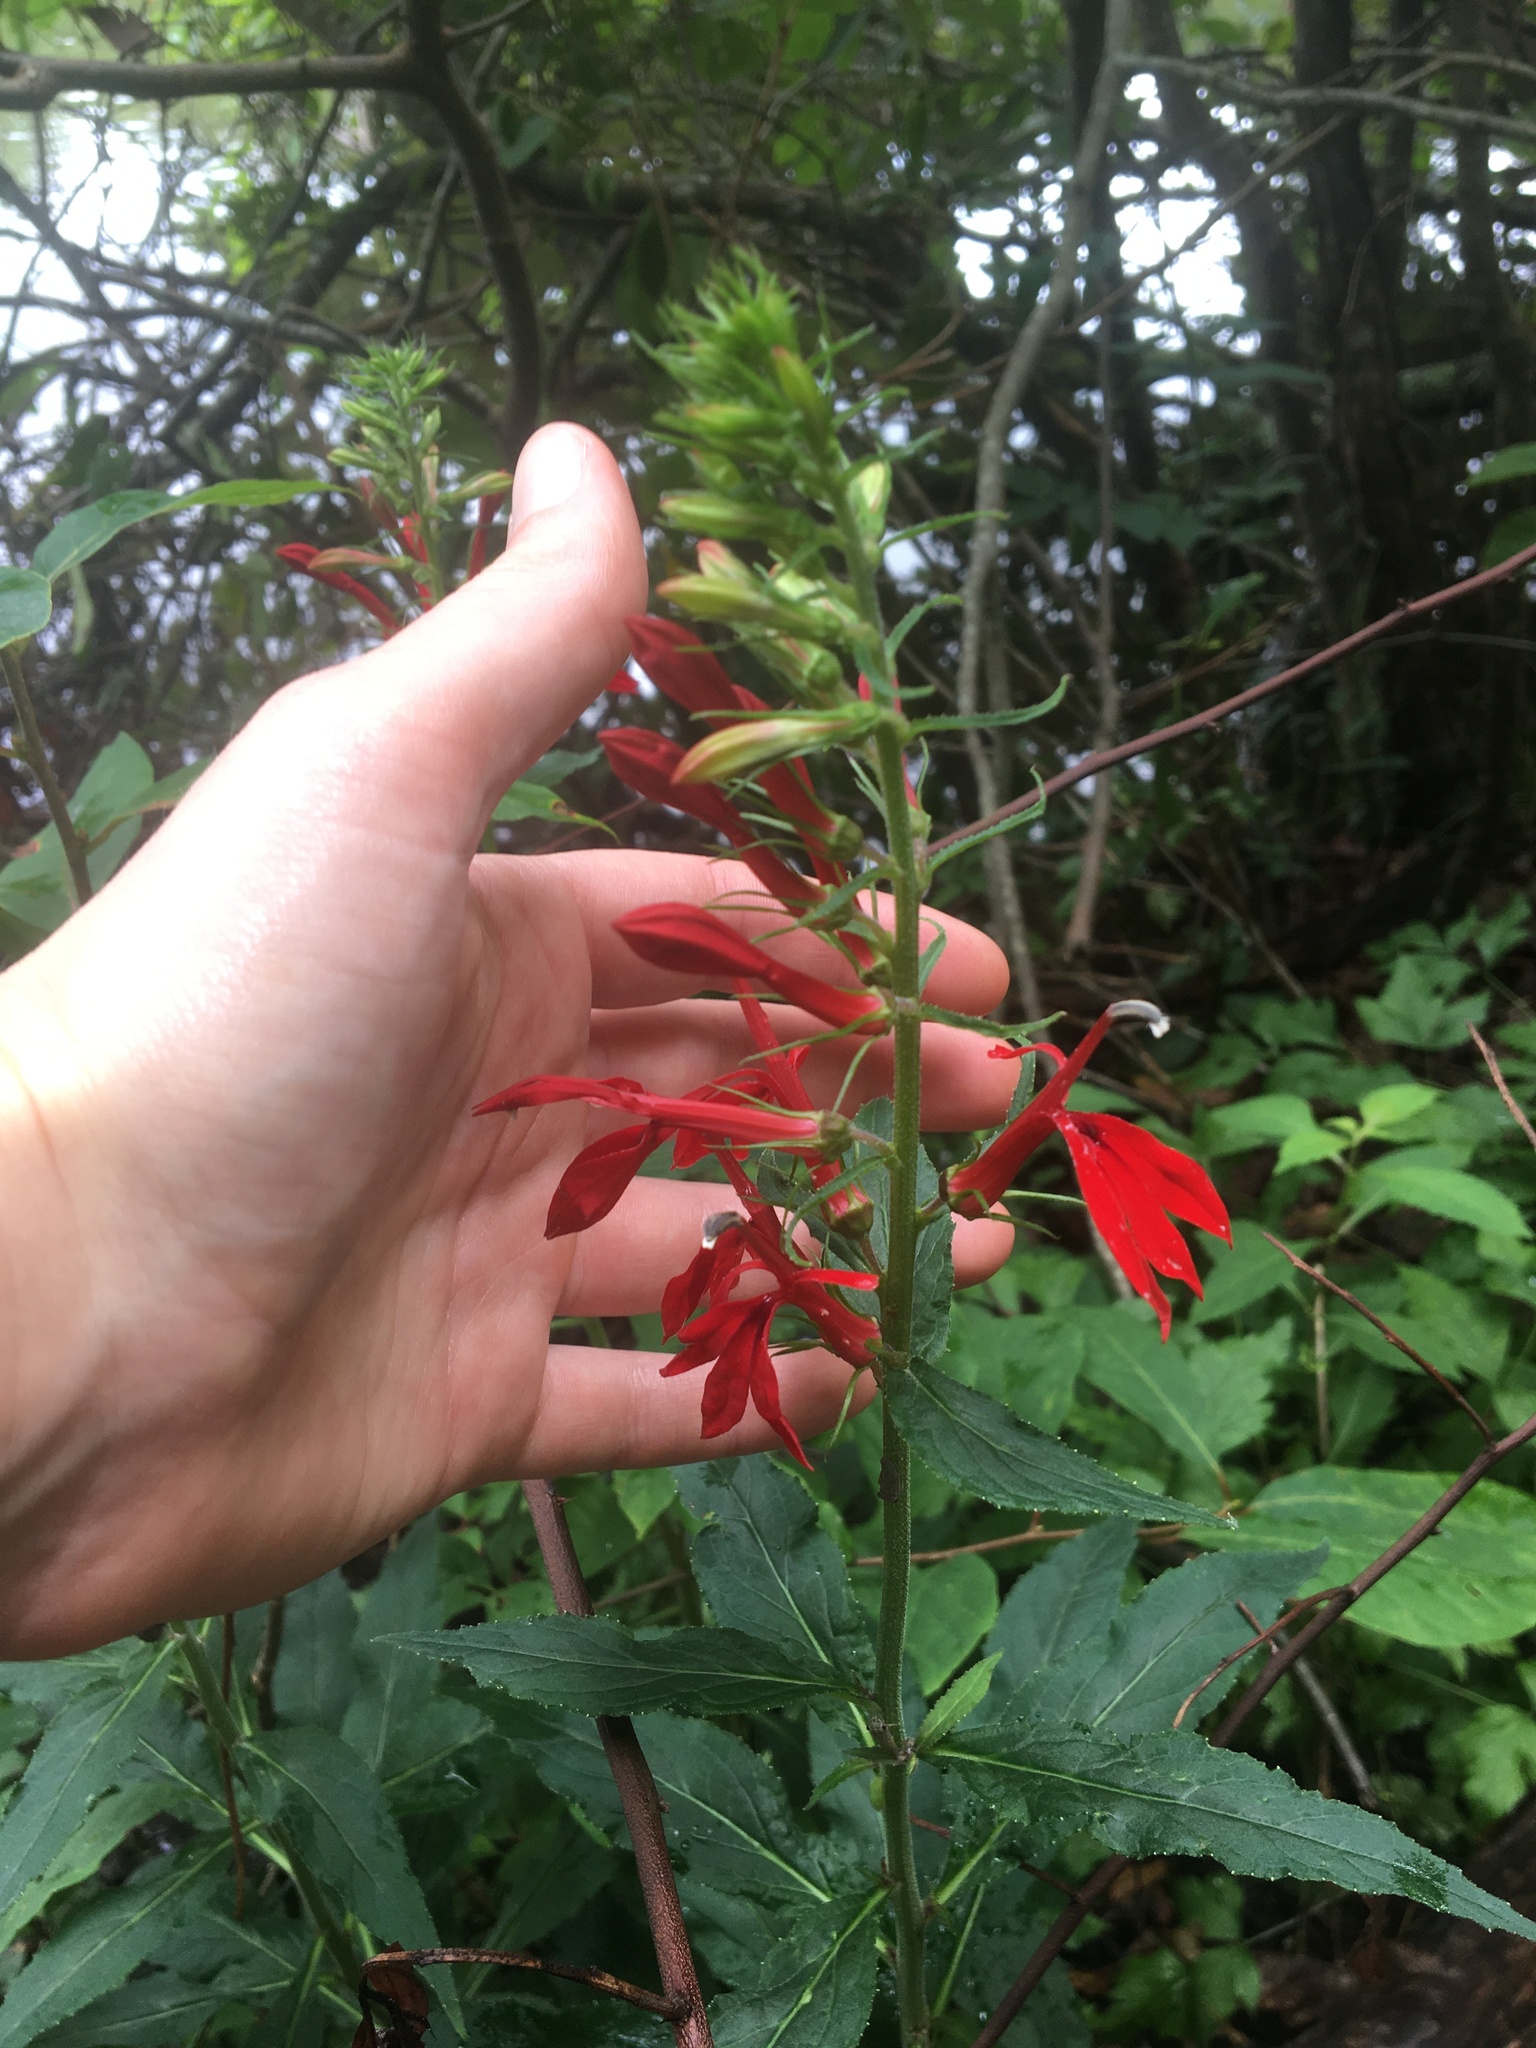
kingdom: Plantae
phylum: Tracheophyta
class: Magnoliopsida
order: Asterales
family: Campanulaceae
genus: Lobelia
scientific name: Lobelia cardinalis
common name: Cardinal flower
